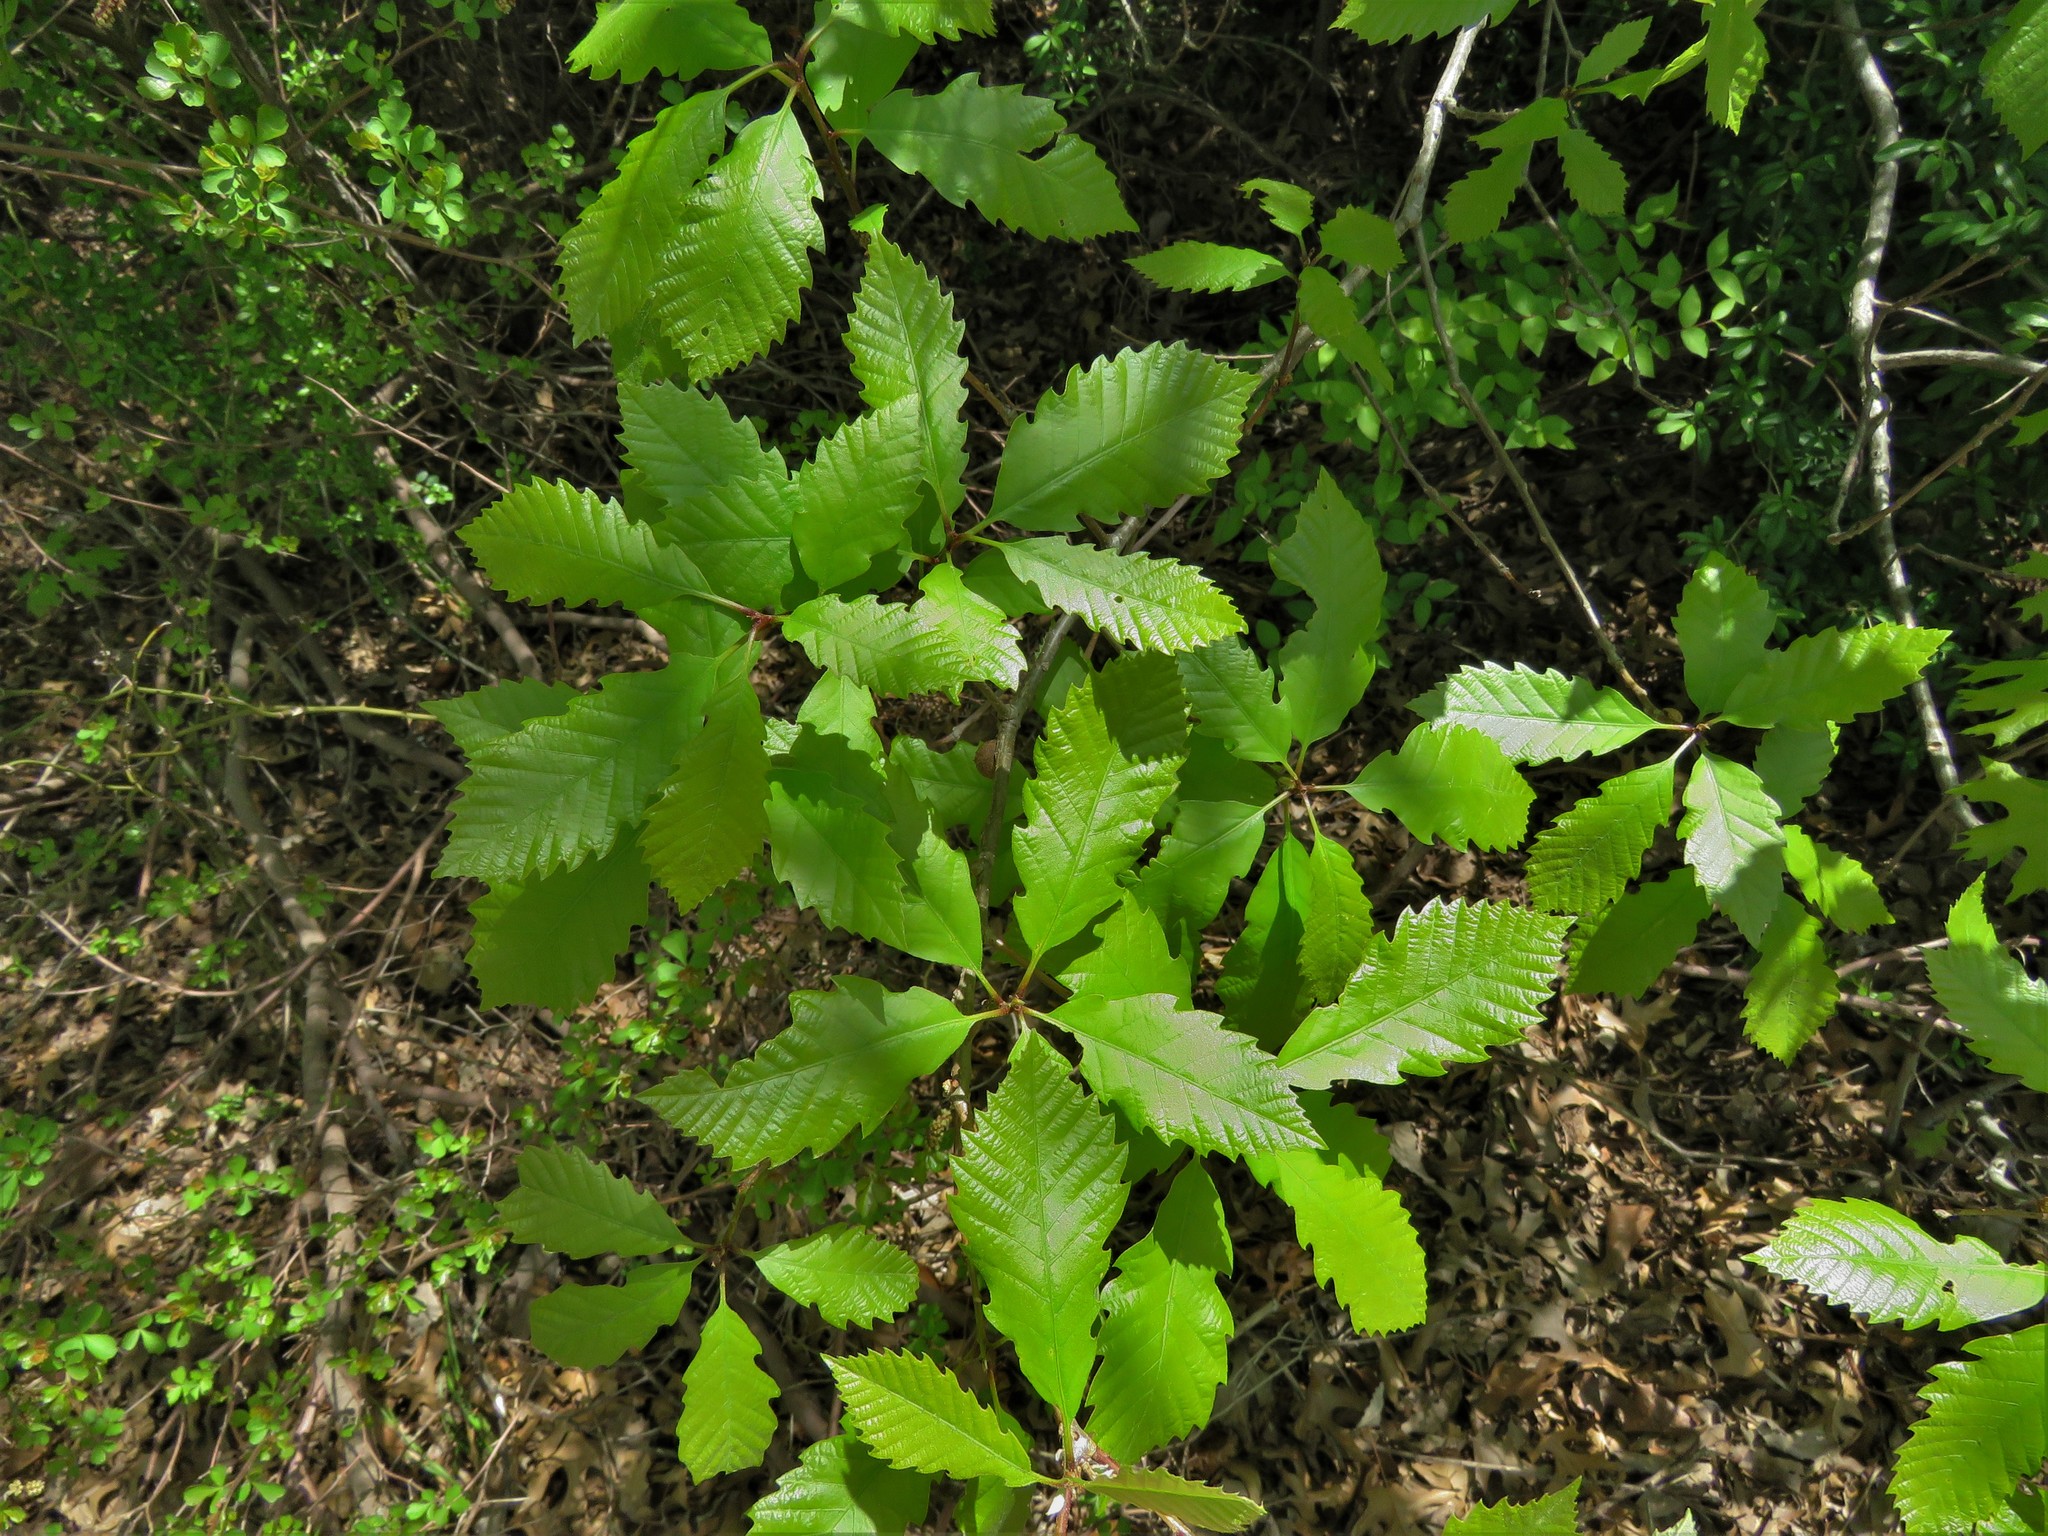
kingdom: Plantae
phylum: Tracheophyta
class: Magnoliopsida
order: Fagales
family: Fagaceae
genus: Quercus
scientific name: Quercus muehlenbergii
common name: Chinkapin oak
